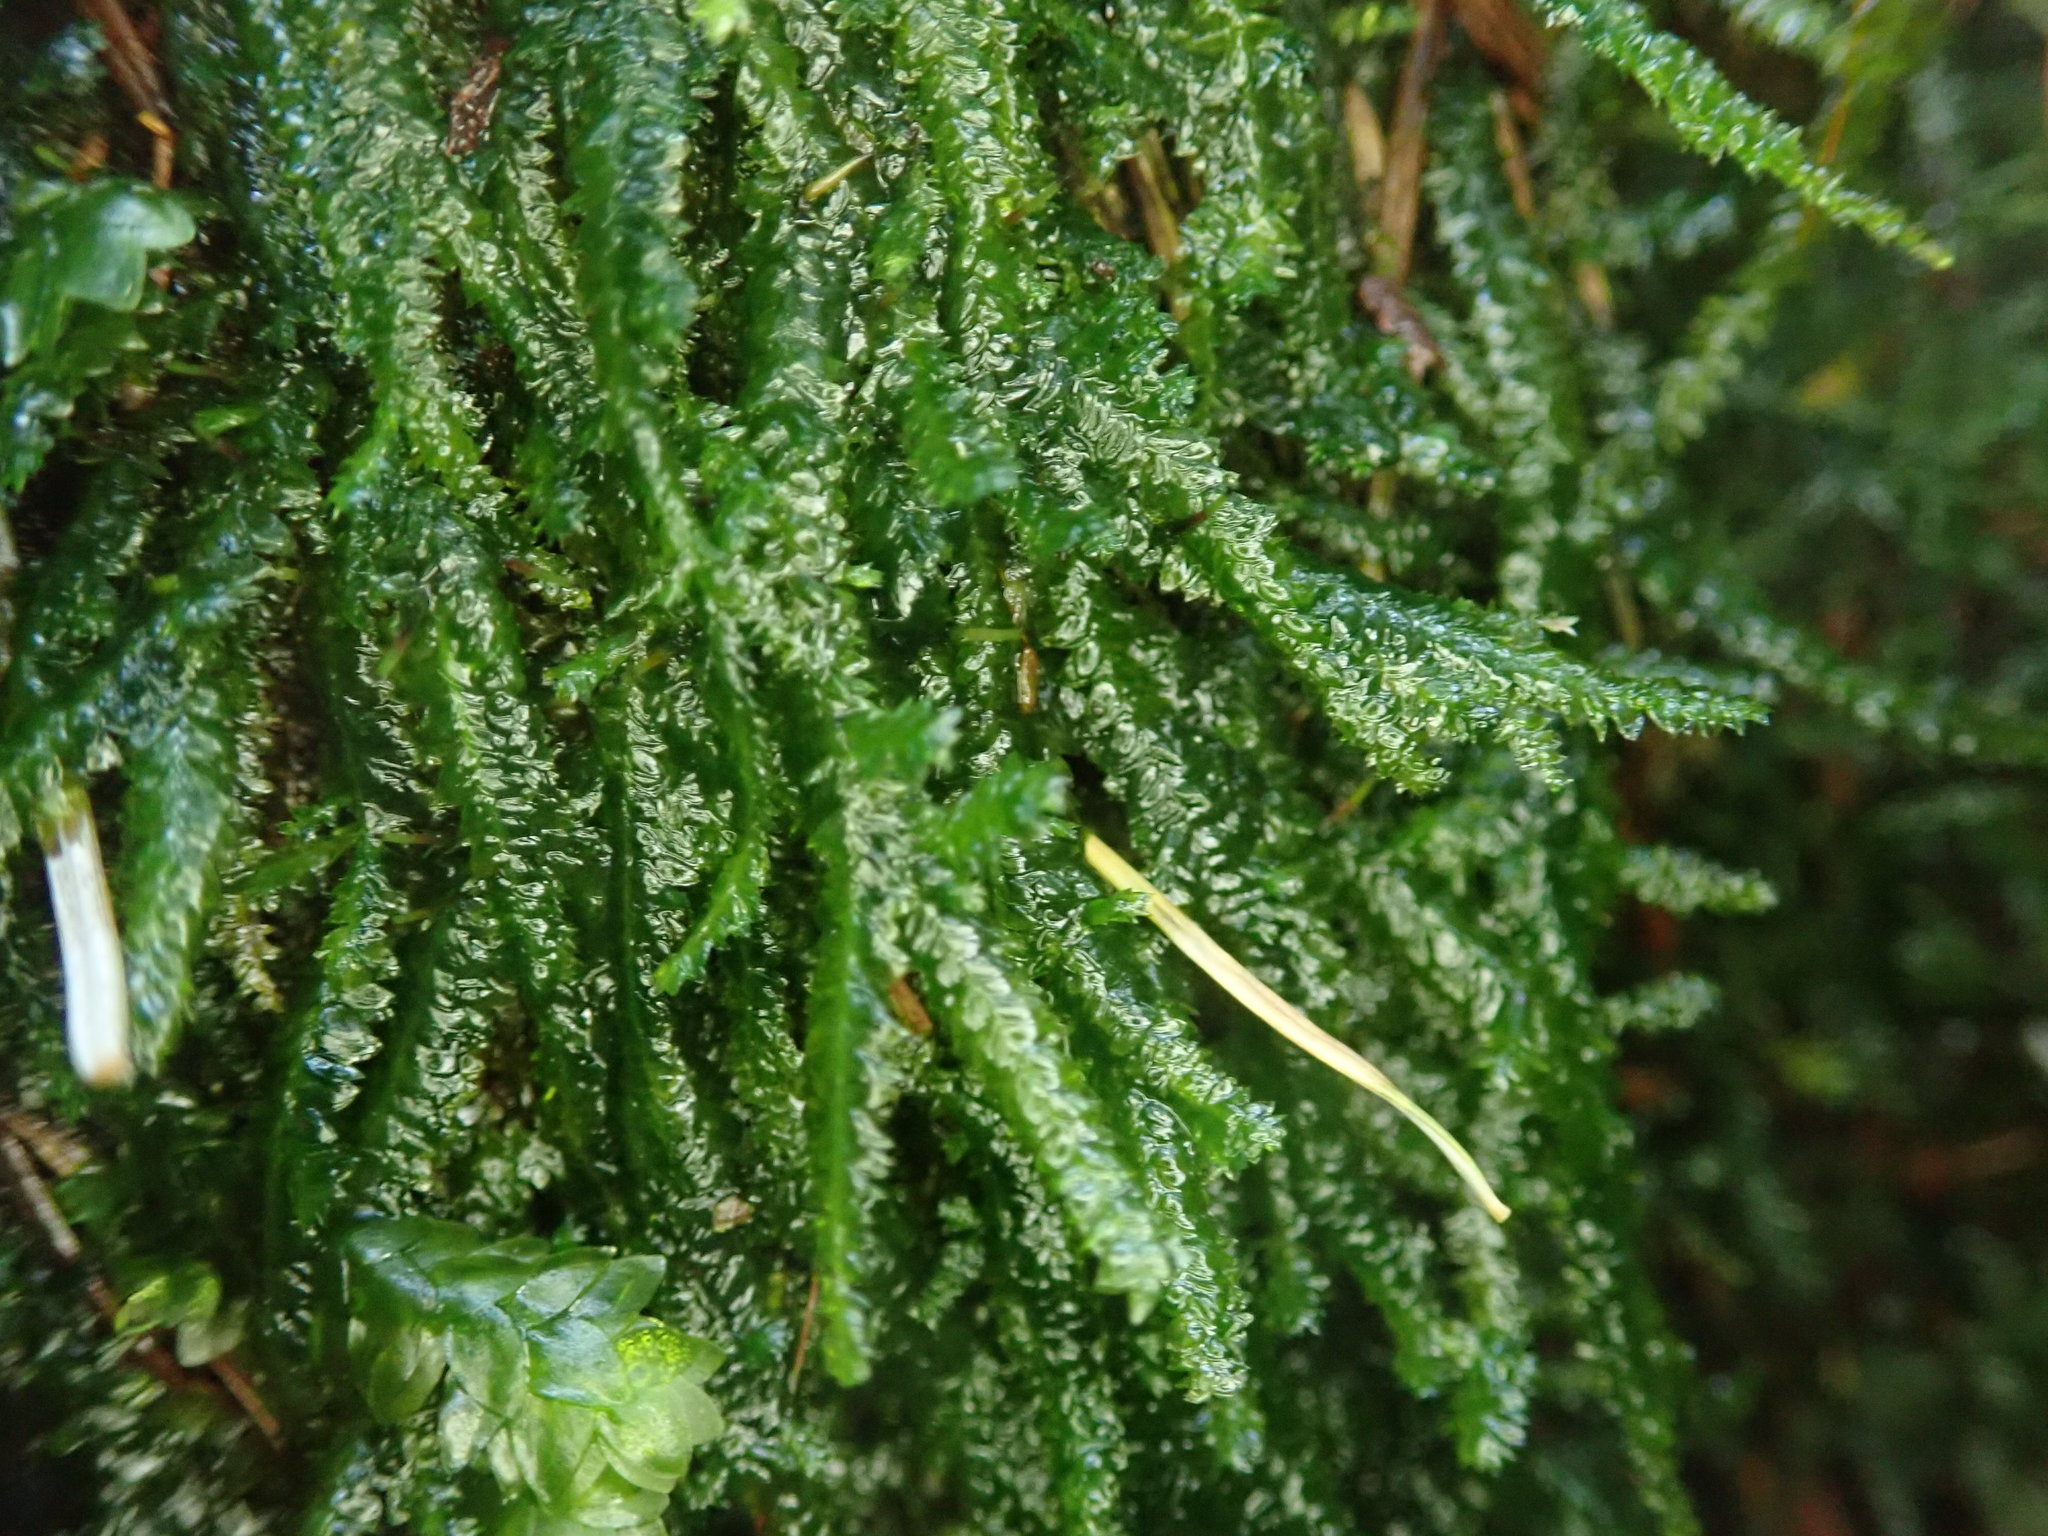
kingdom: Plantae
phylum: Bryophyta
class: Bryopsida
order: Hypnales
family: Neckeraceae
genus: Dannorrisia
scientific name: Dannorrisia bigelovii
